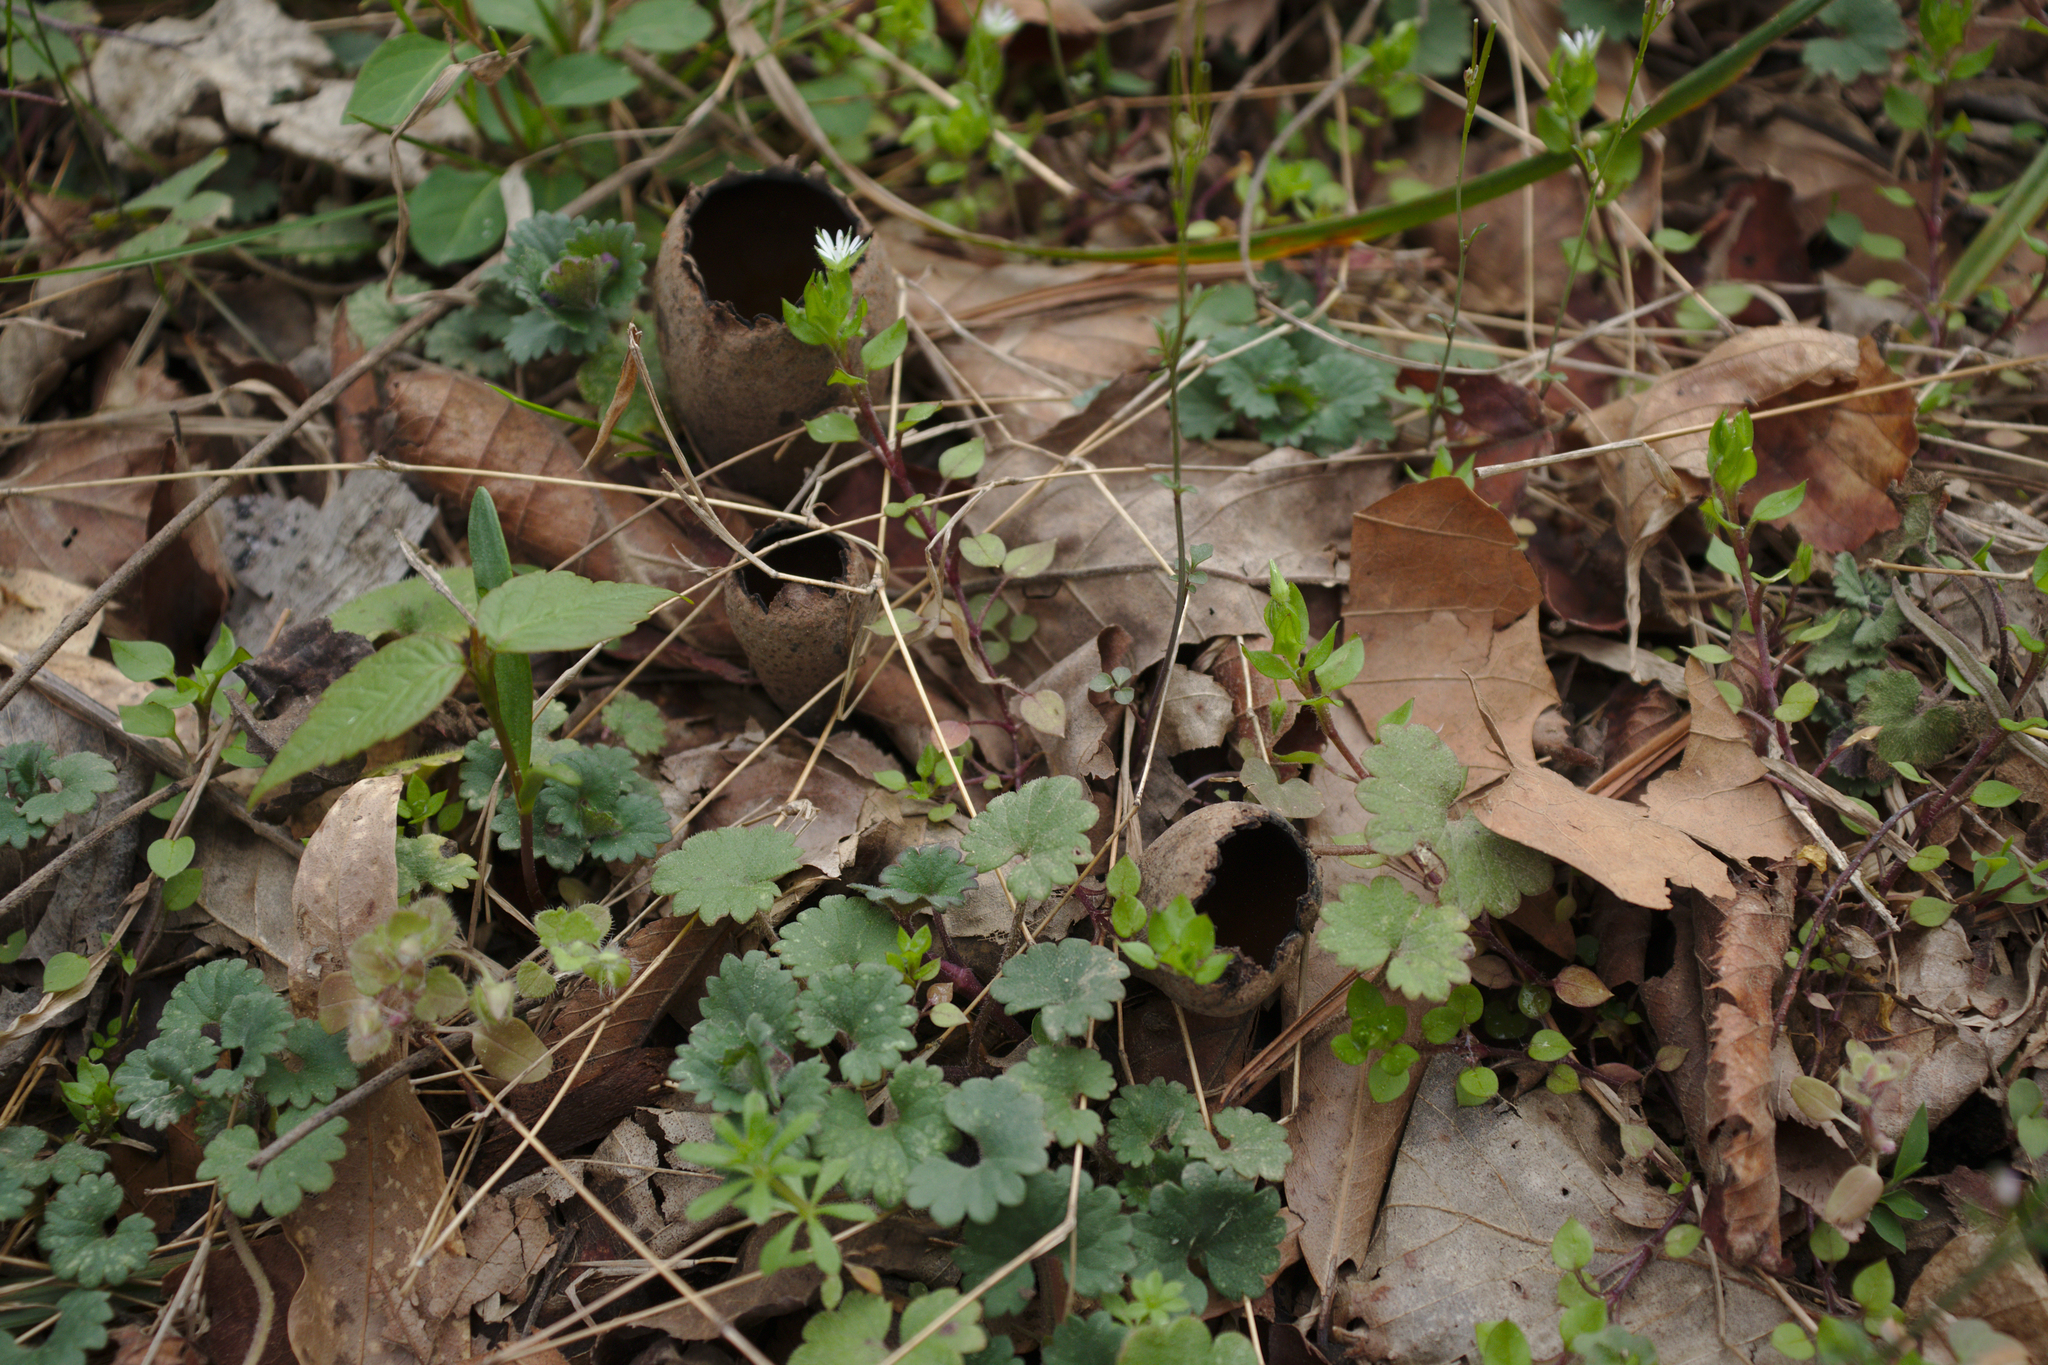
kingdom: Fungi
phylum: Ascomycota
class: Pezizomycetes
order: Pezizales
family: Sarcosomataceae
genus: Urnula
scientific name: Urnula craterium
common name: Devil's urn
